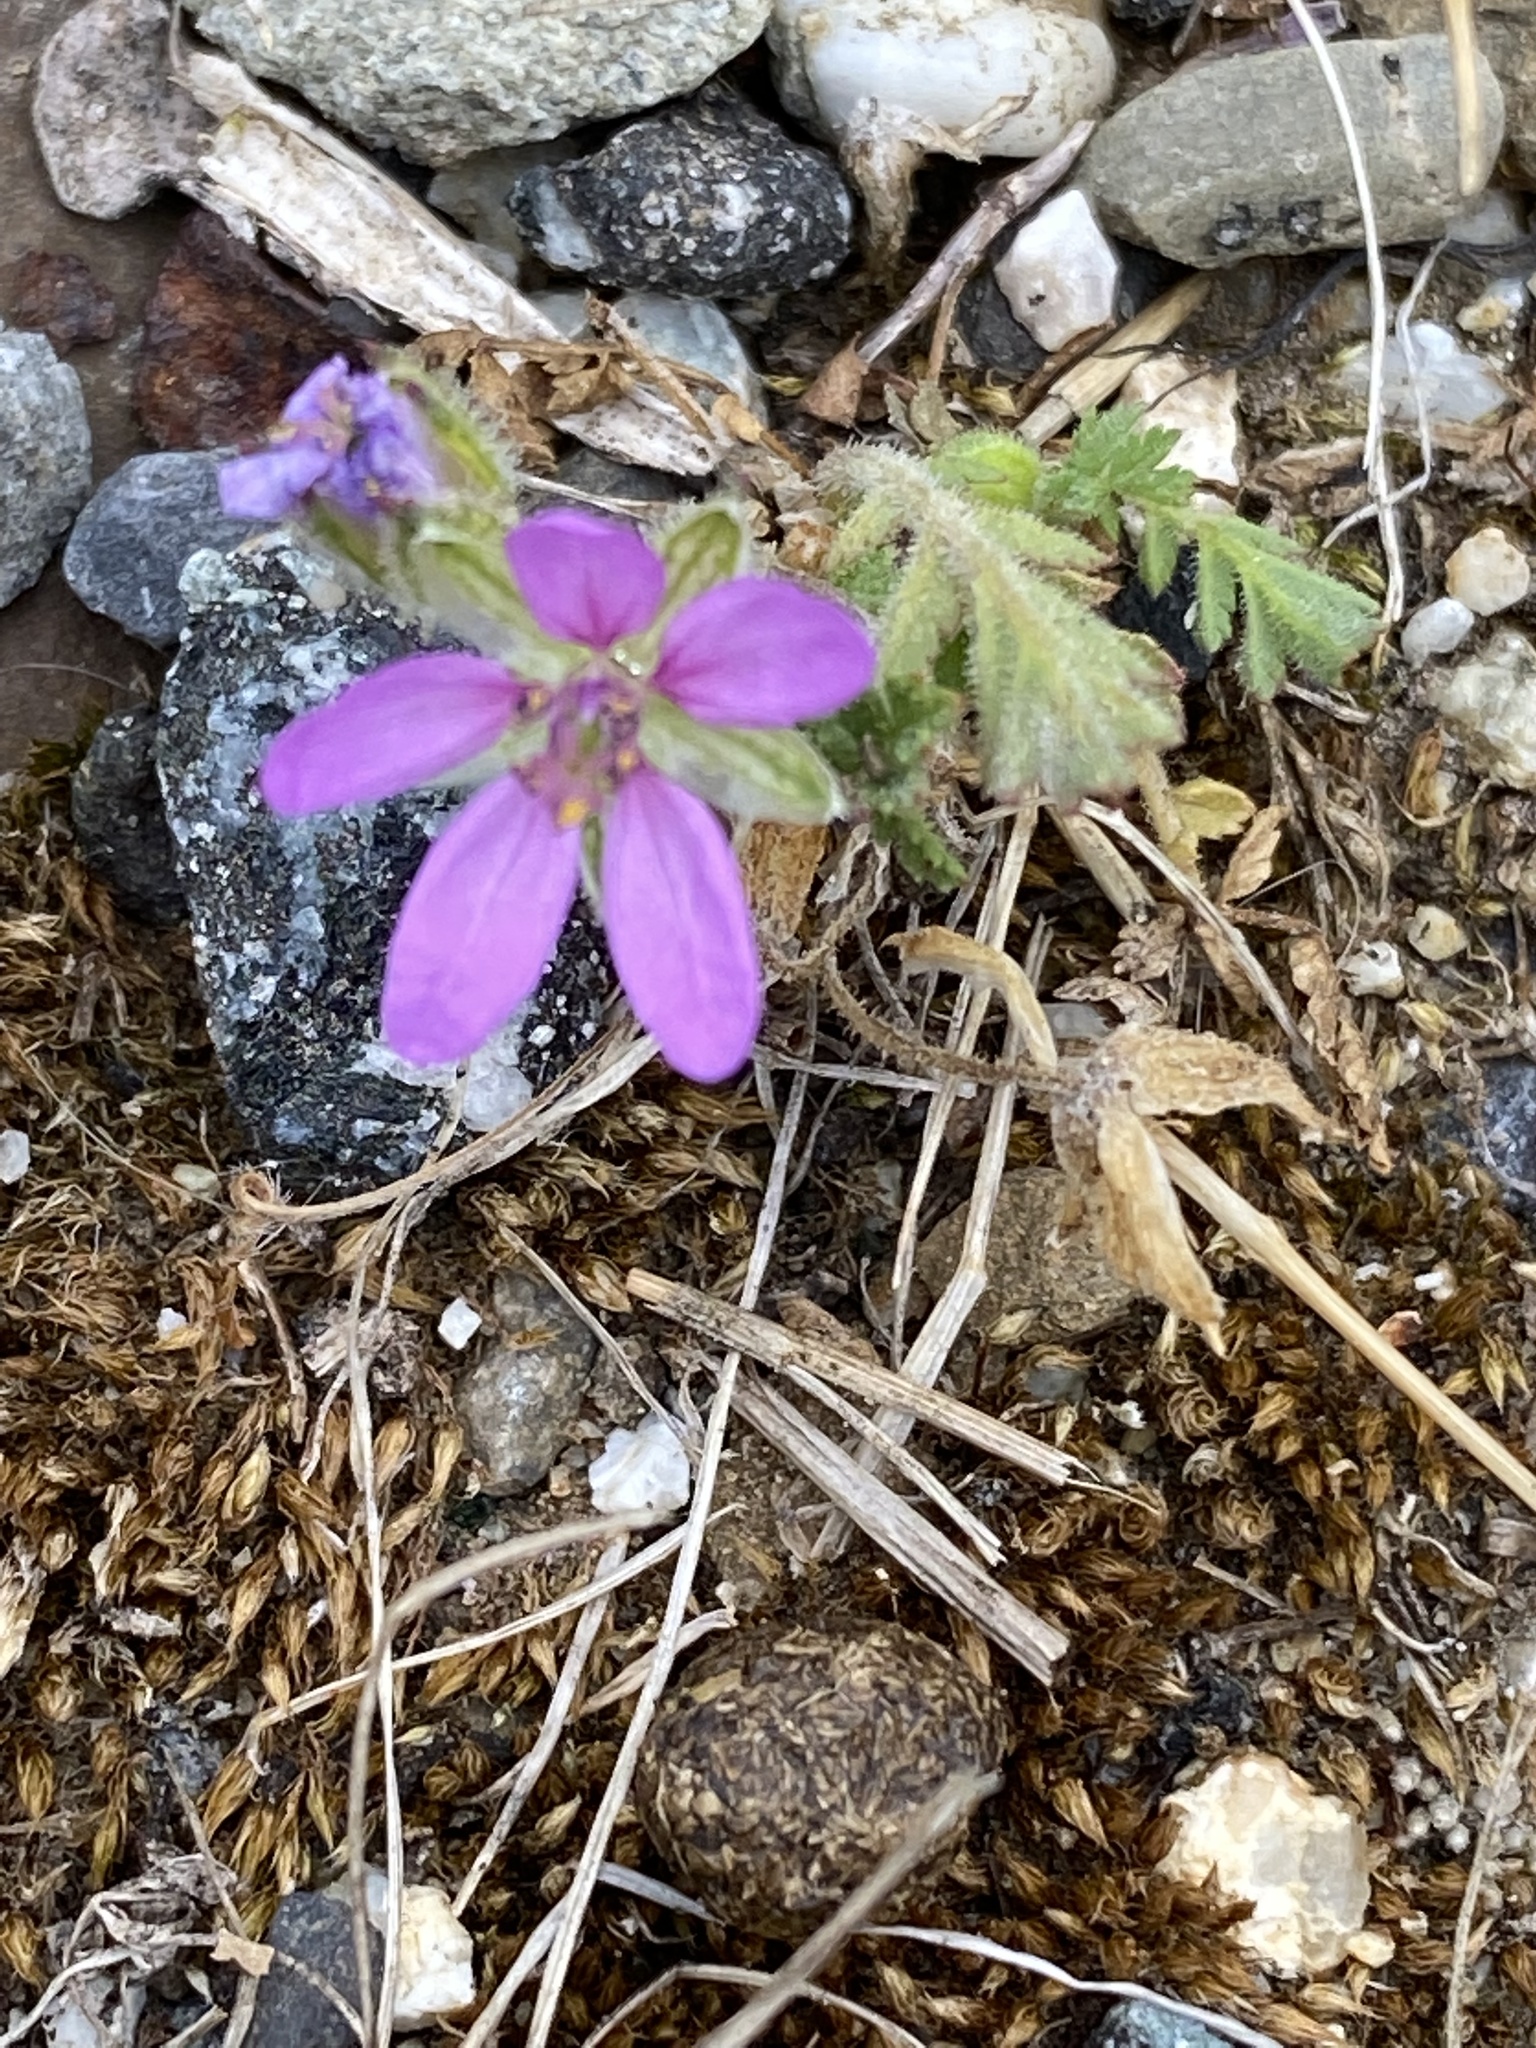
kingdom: Plantae
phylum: Tracheophyta
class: Magnoliopsida
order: Geraniales
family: Geraniaceae
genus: Erodium
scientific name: Erodium moschatum
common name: Musk stork's-bill
